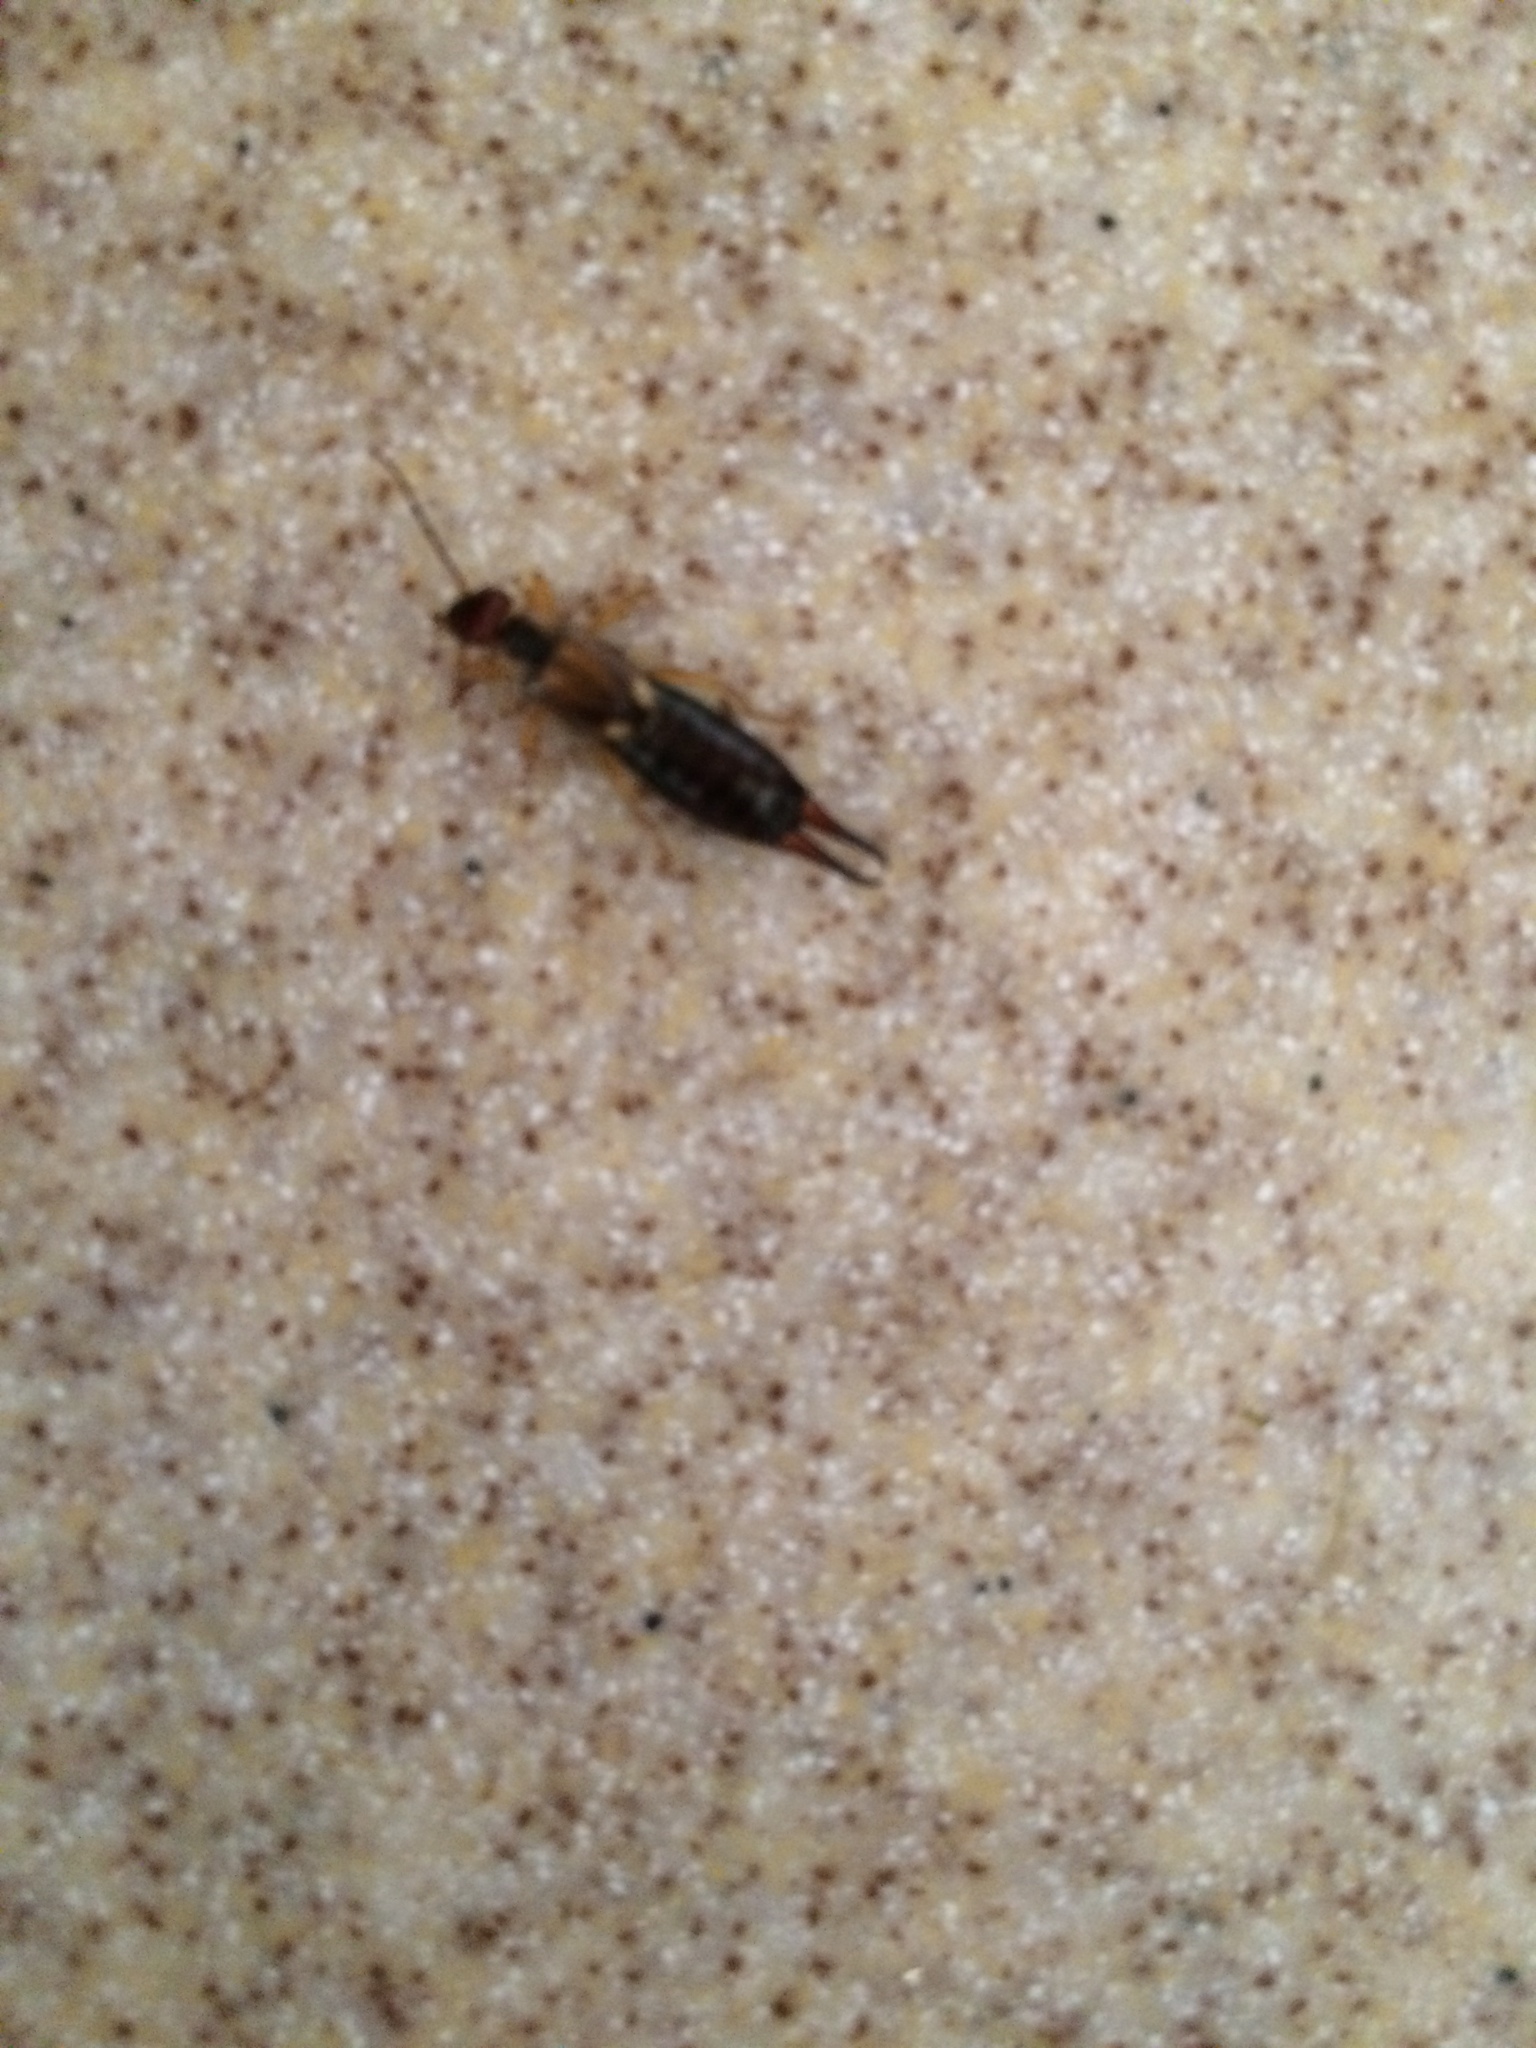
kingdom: Animalia
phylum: Arthropoda
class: Insecta
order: Dermaptera
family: Forficulidae
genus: Forficula
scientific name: Forficula
